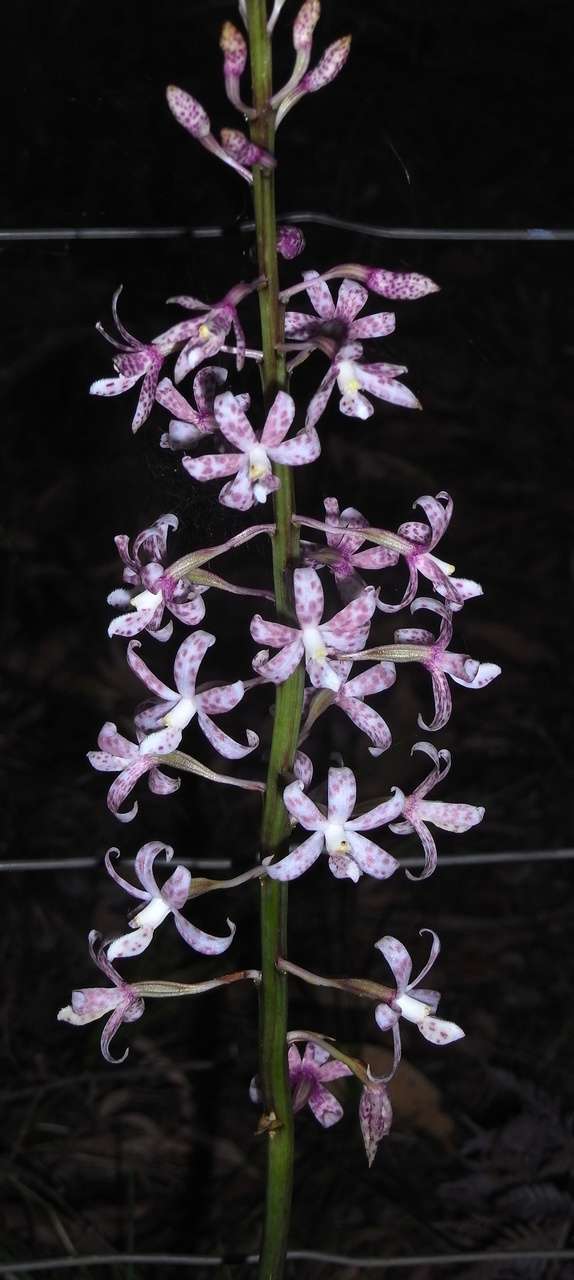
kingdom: Plantae
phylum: Tracheophyta
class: Liliopsida
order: Asparagales
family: Orchidaceae
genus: Dipodium
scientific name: Dipodium pardalinum
